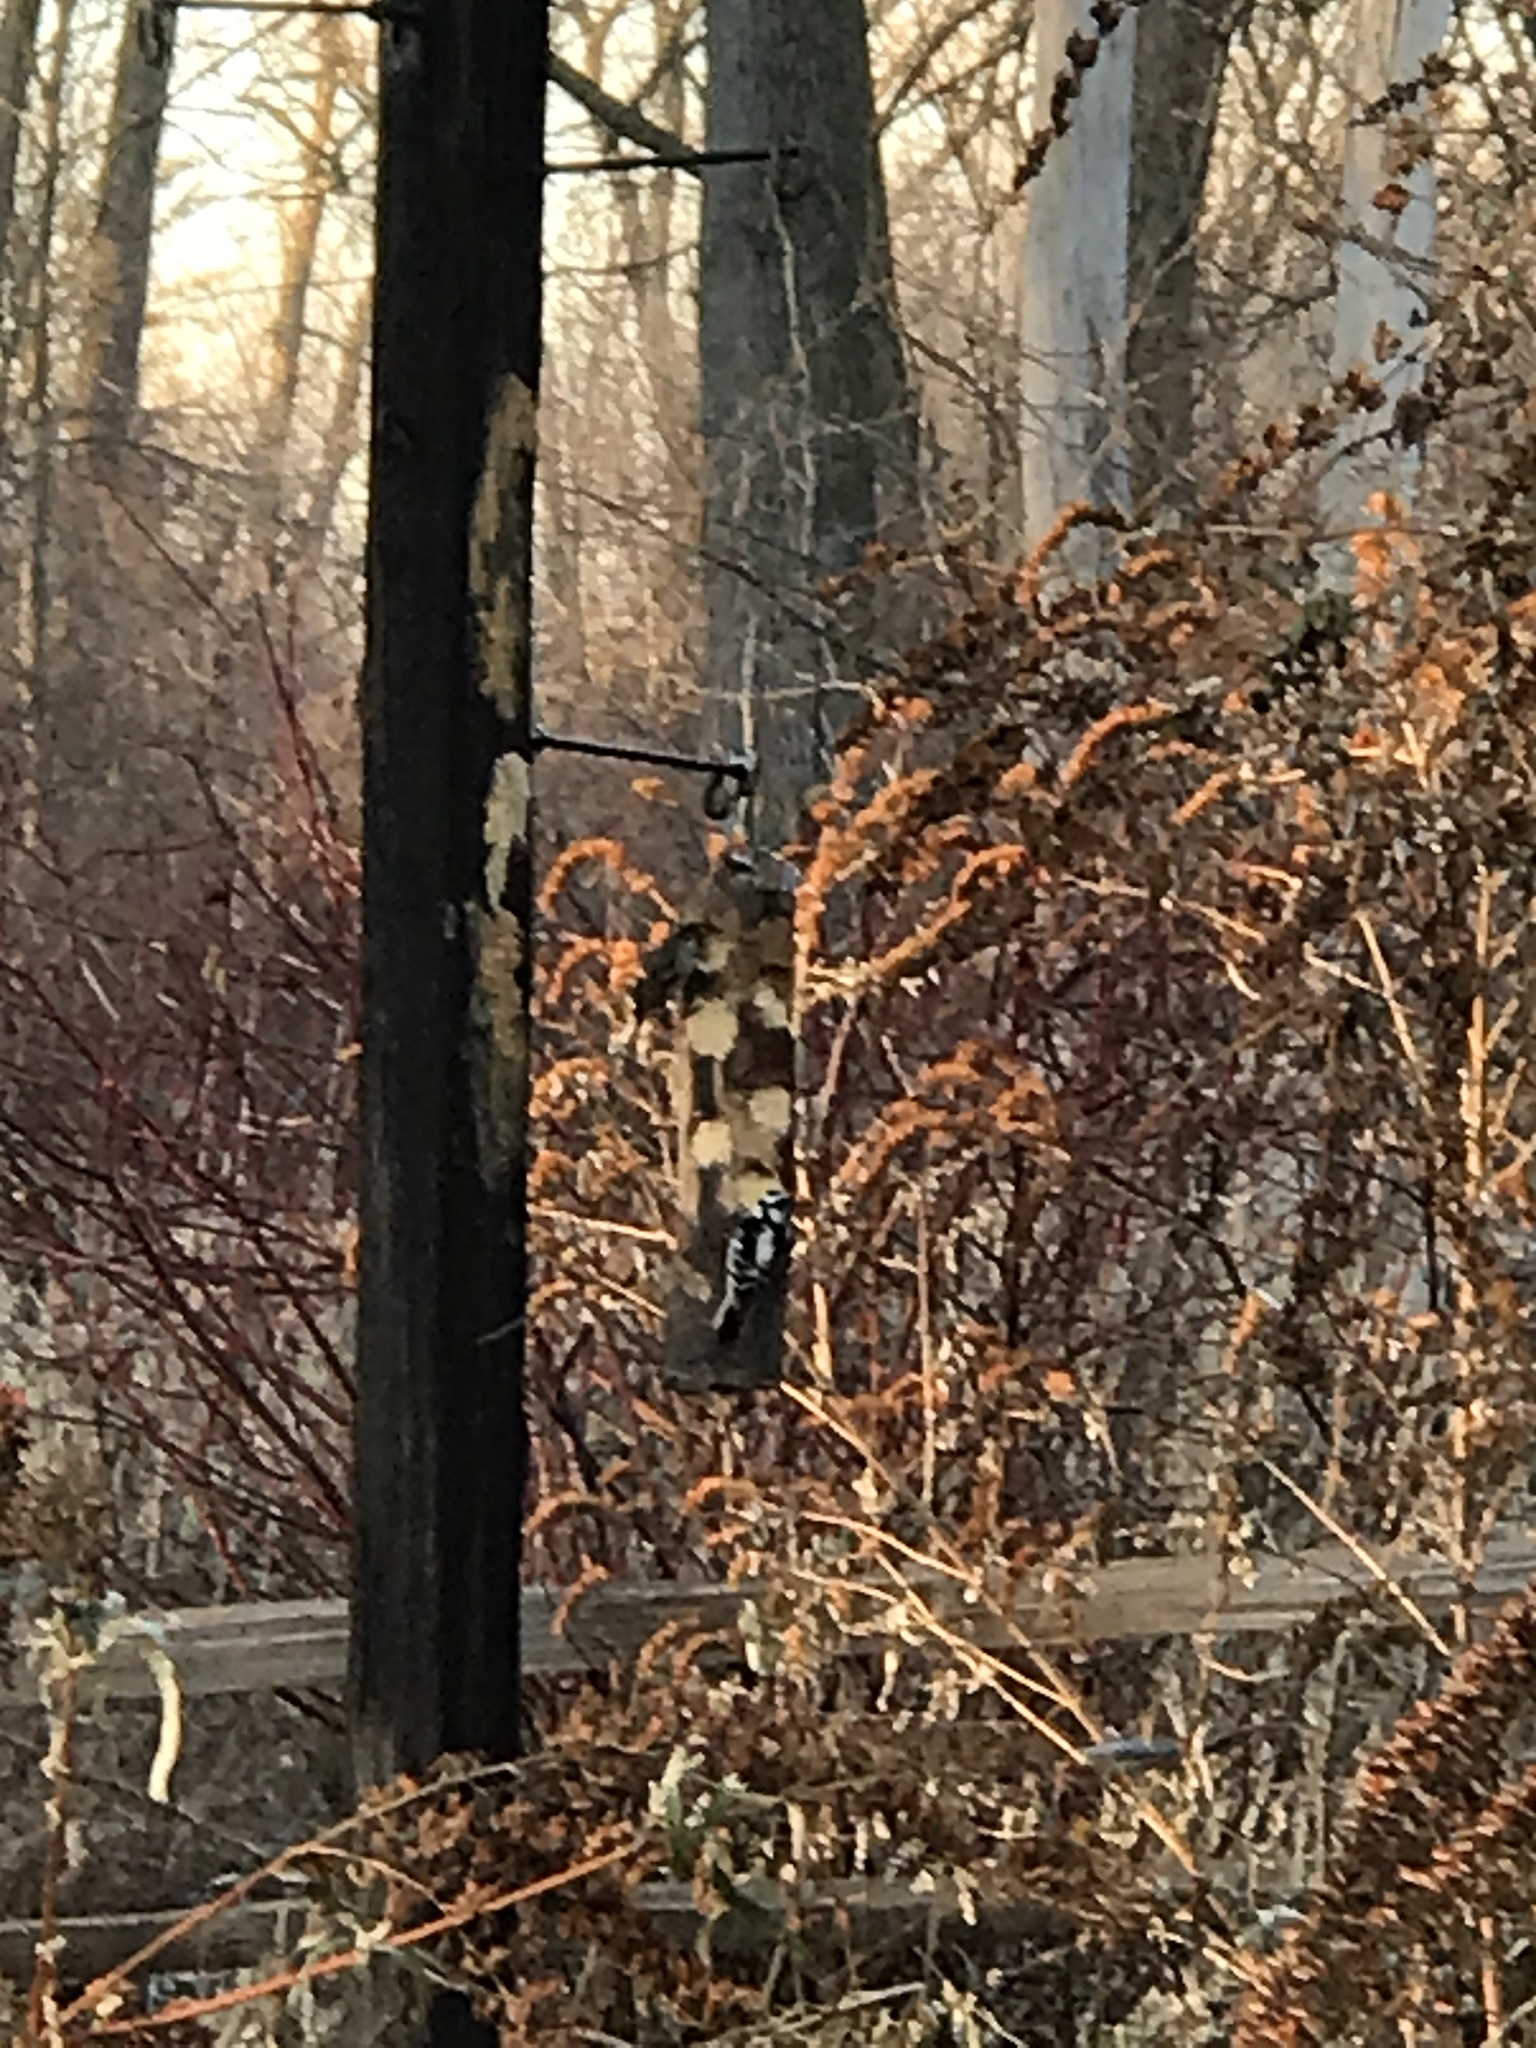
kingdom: Animalia
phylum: Chordata
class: Aves
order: Piciformes
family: Picidae
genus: Dryobates
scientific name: Dryobates pubescens
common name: Downy woodpecker
